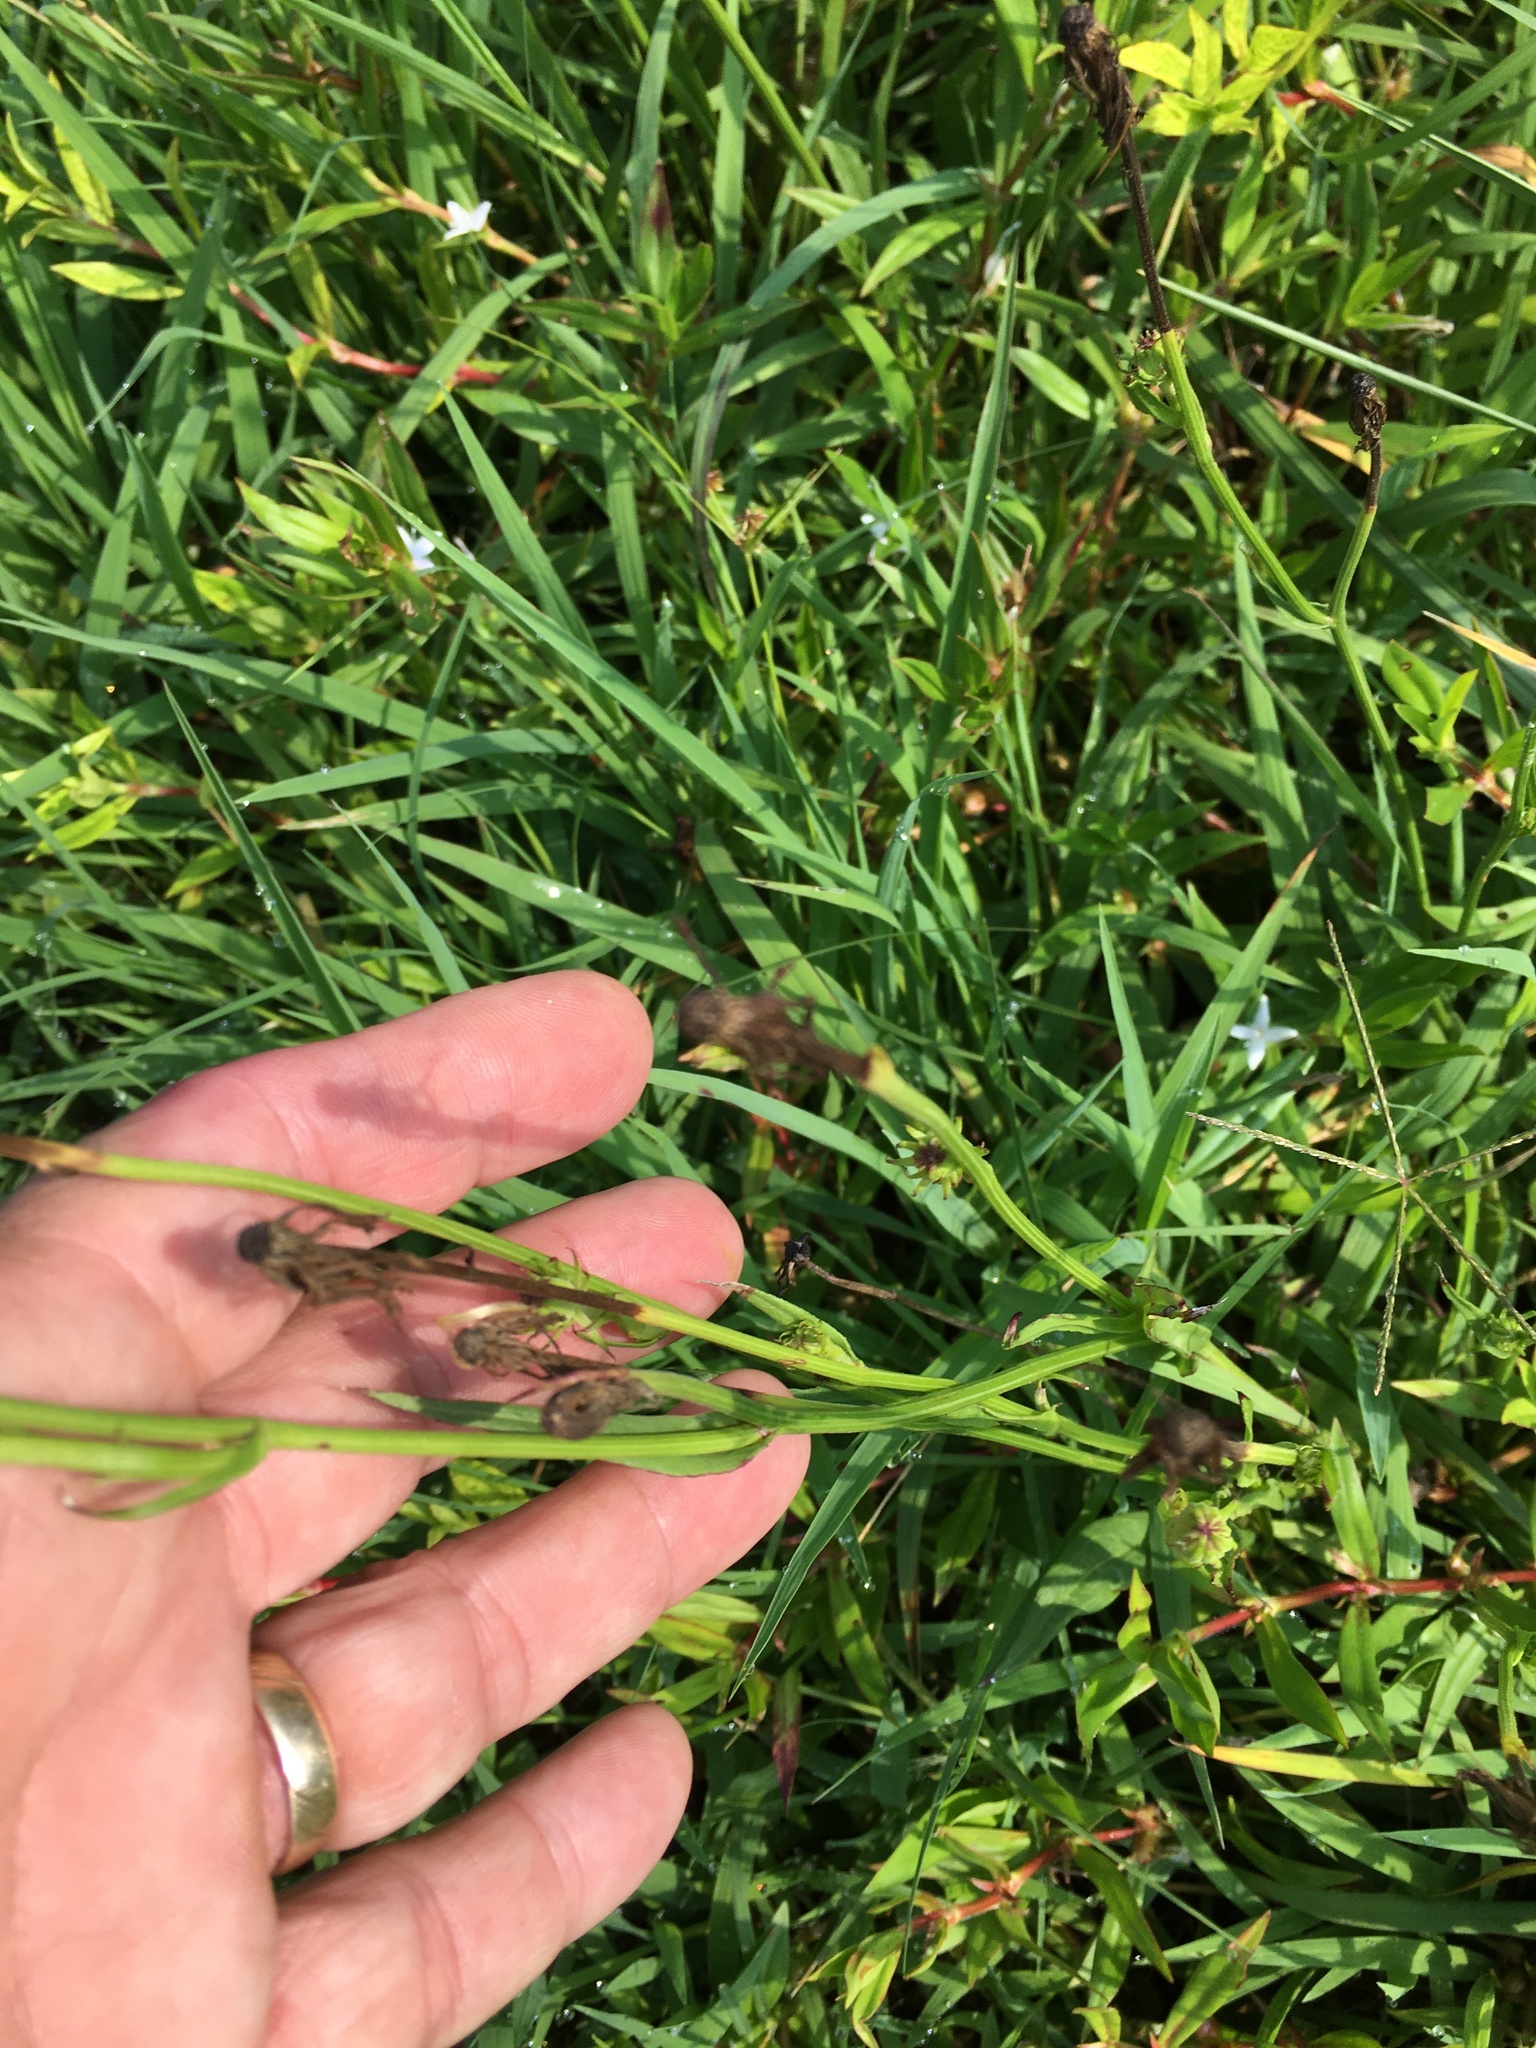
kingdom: Plantae
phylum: Tracheophyta
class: Magnoliopsida
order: Asterales
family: Asteraceae
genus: Pyrrhopappus
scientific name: Pyrrhopappus carolinianus
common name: Carolina desert-chicory
